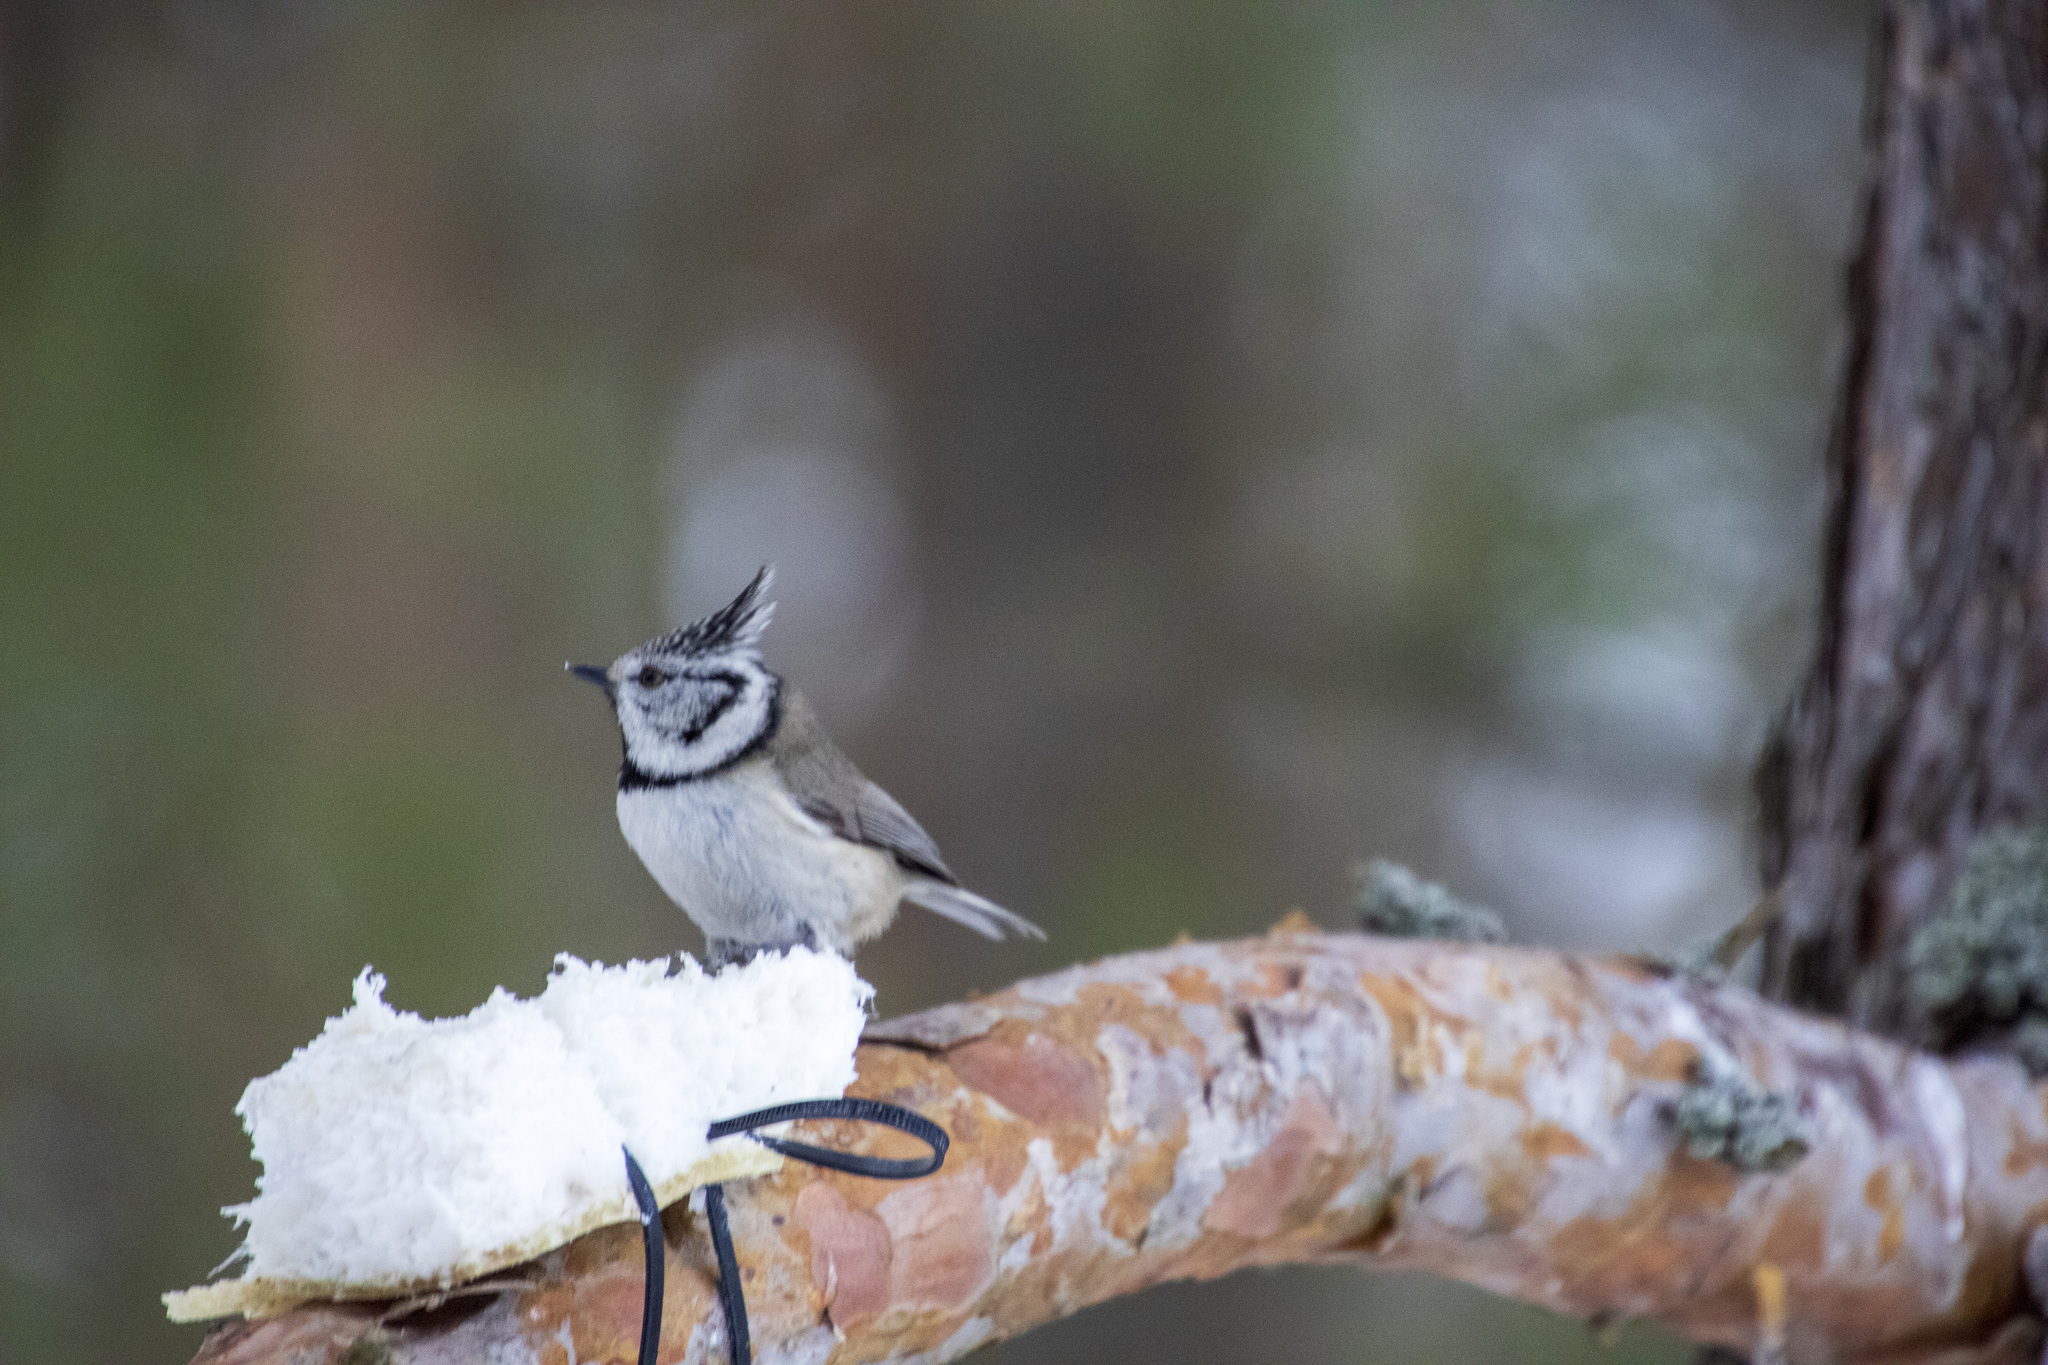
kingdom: Animalia
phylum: Chordata
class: Aves
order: Passeriformes
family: Paridae
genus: Lophophanes
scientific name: Lophophanes cristatus
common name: European crested tit
